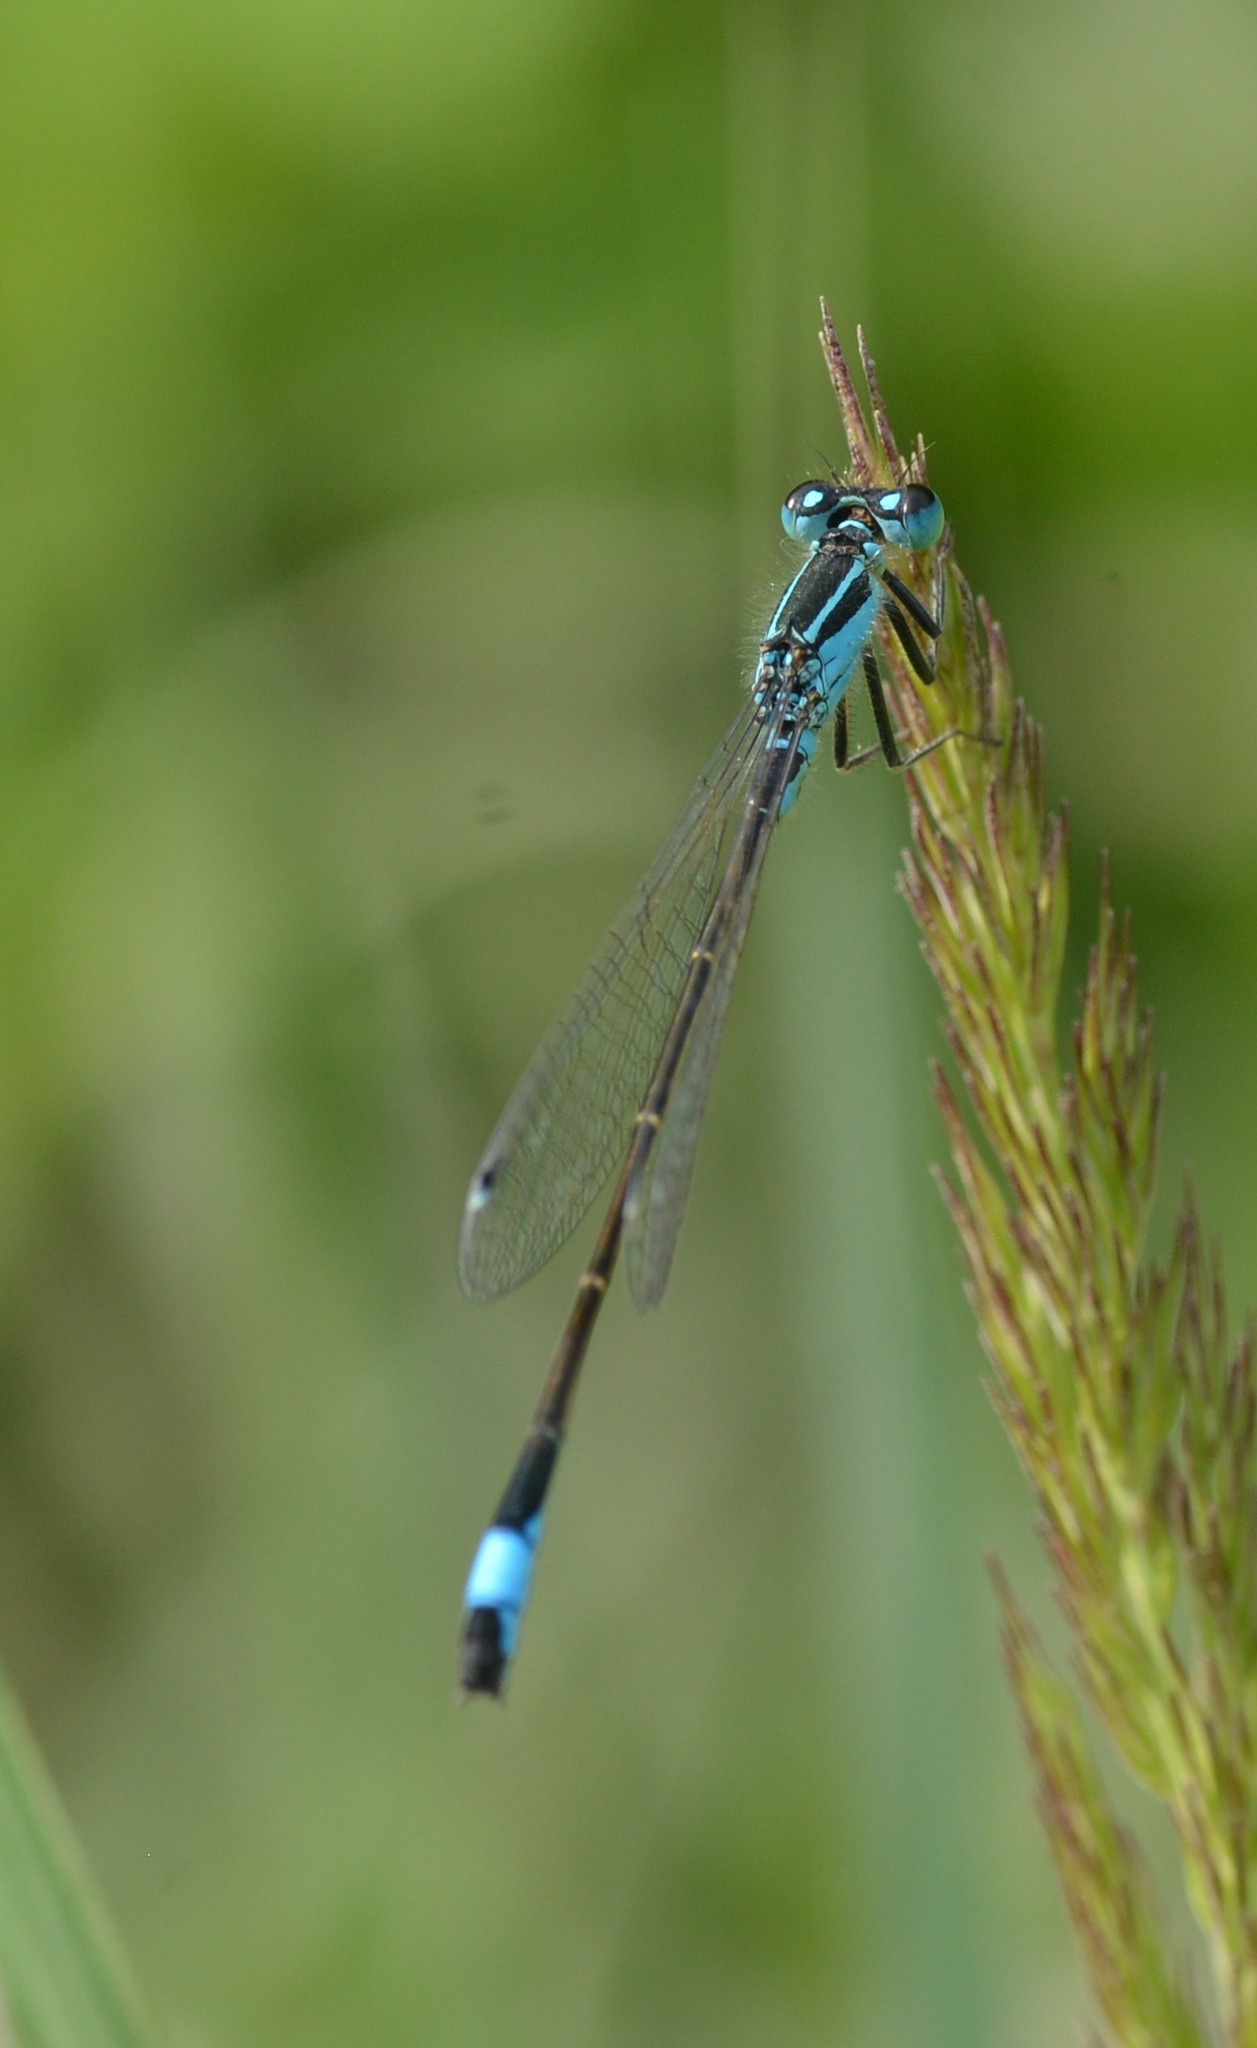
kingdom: Animalia
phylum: Arthropoda
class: Insecta
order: Odonata
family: Coenagrionidae
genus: Ischnura
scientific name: Ischnura elegans
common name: Blue-tailed damselfly
